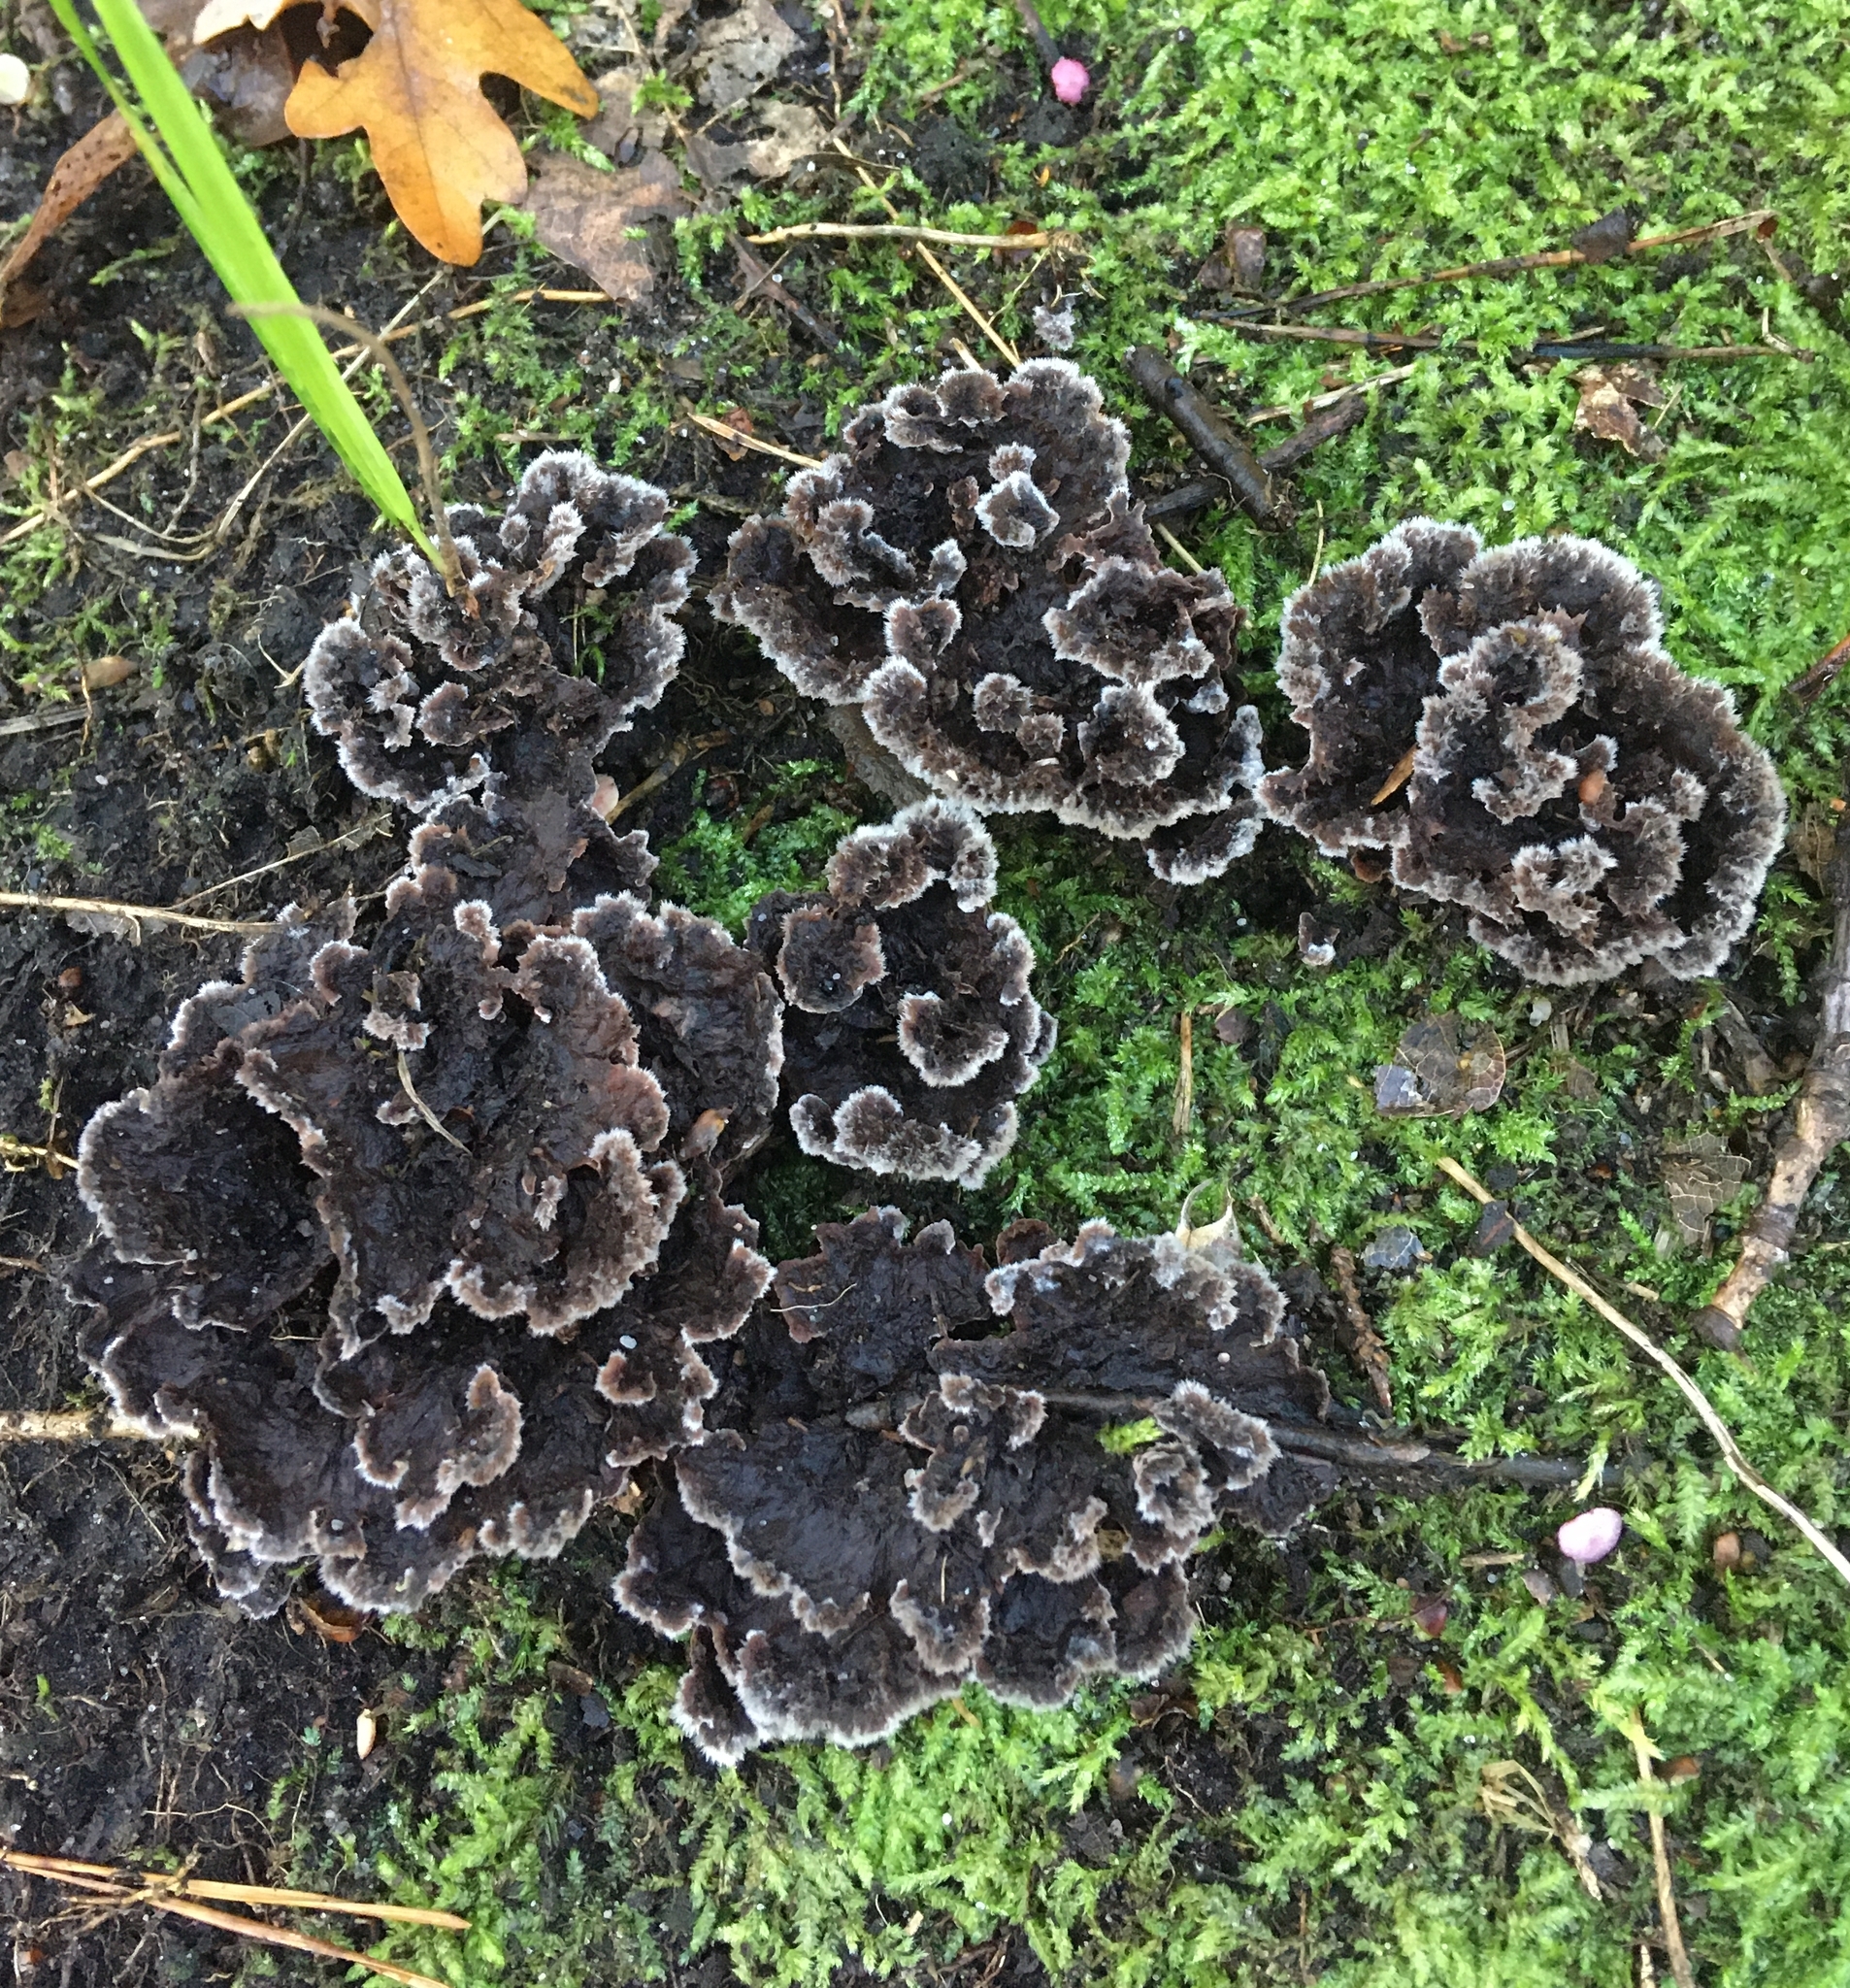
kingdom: Fungi
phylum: Basidiomycota
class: Agaricomycetes
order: Thelephorales
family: Thelephoraceae
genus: Thelephora
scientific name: Thelephora terrestris
